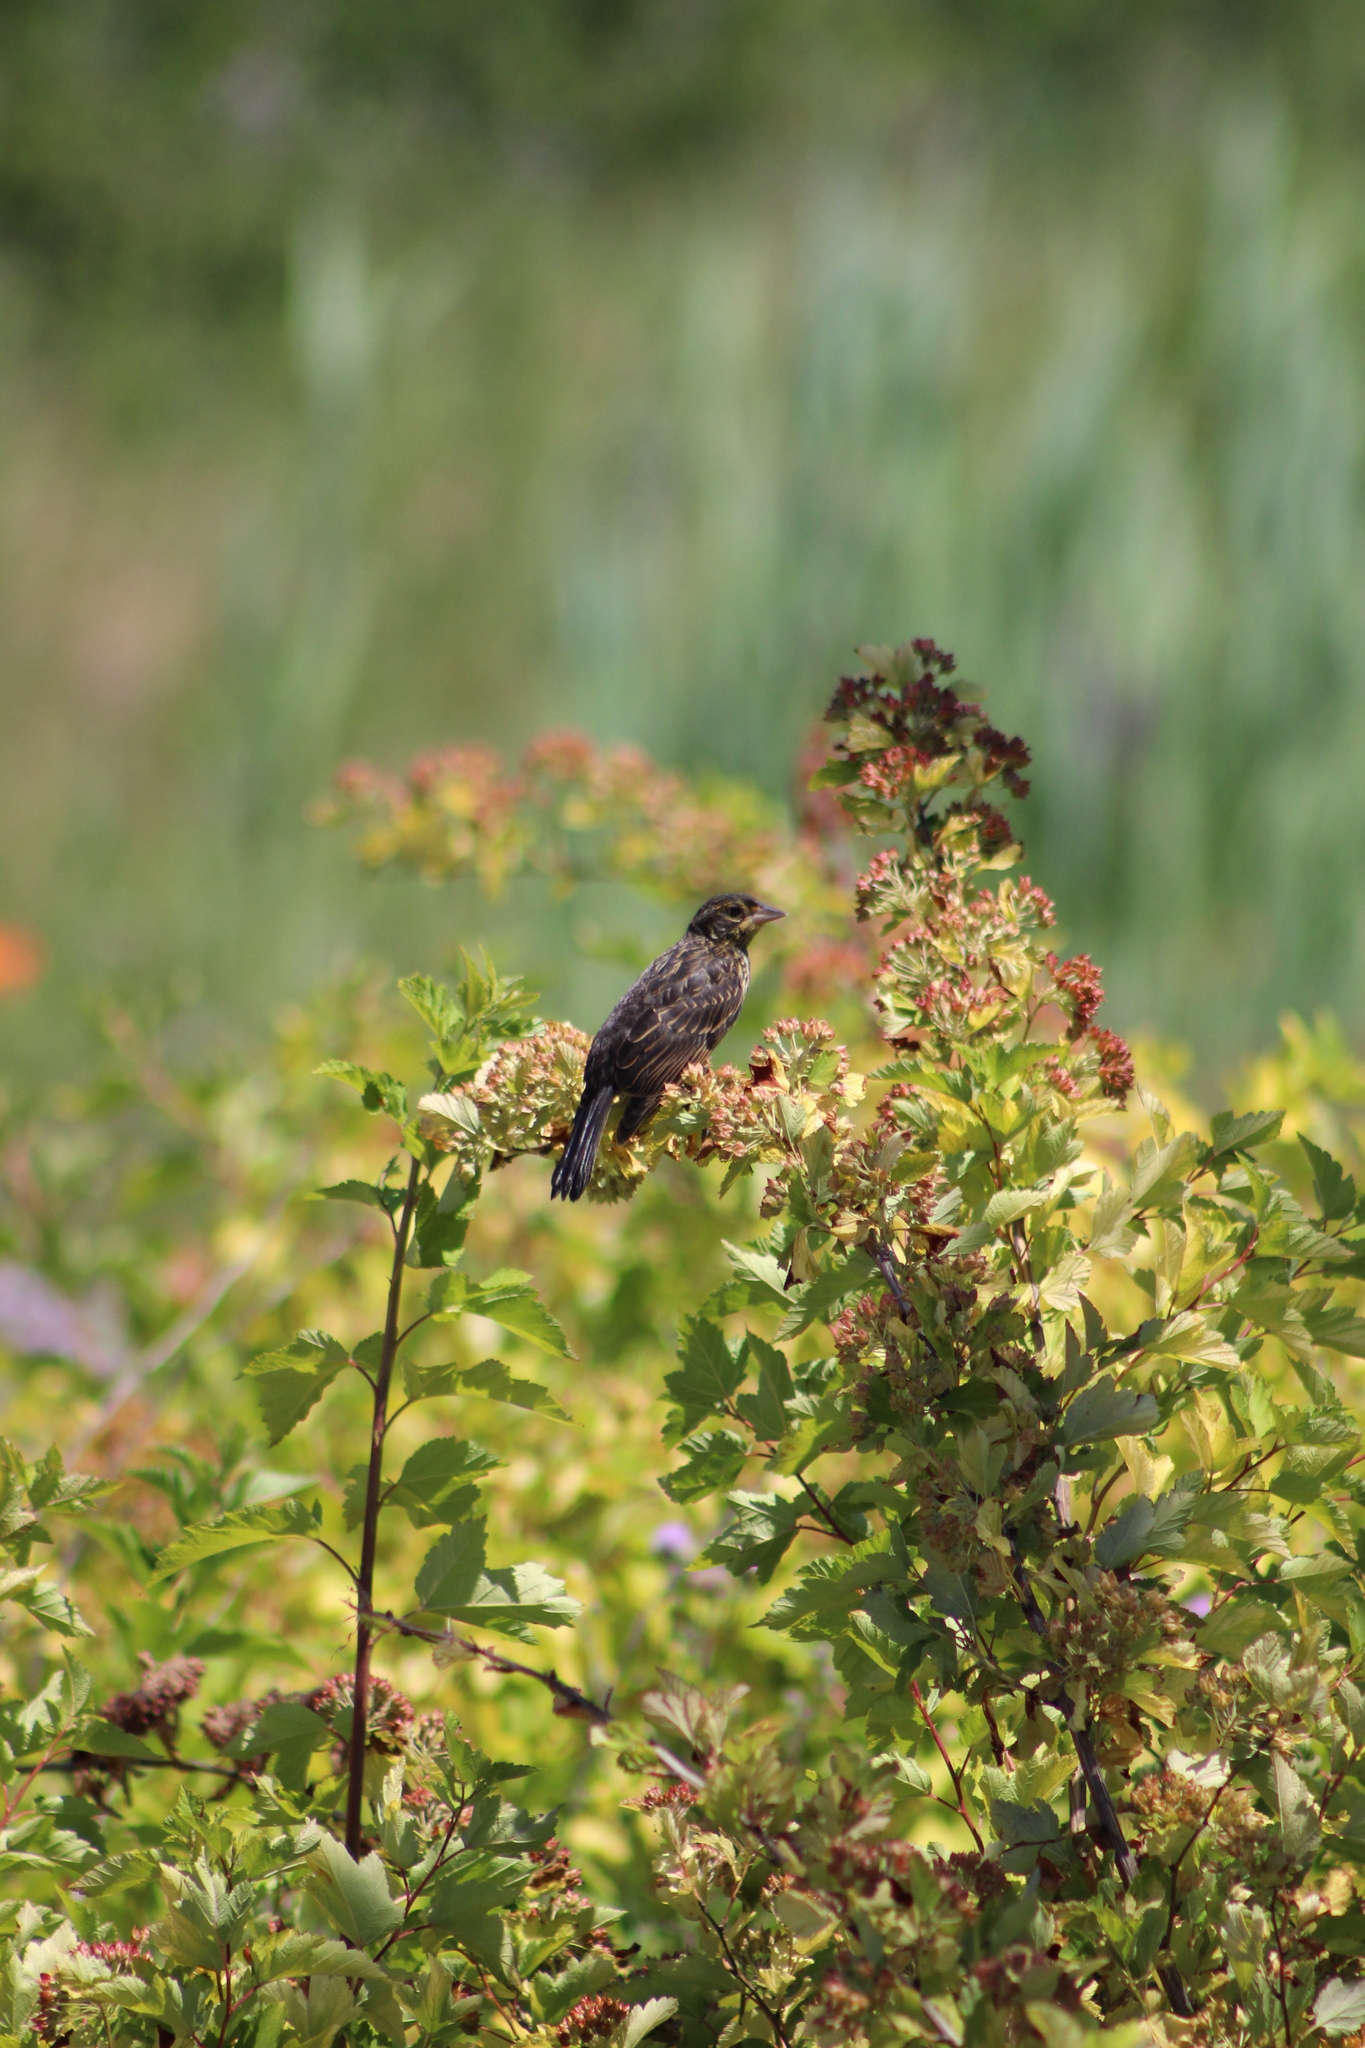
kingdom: Animalia
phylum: Chordata
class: Aves
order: Passeriformes
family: Icteridae
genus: Agelaius
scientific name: Agelaius phoeniceus
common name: Red-winged blackbird
